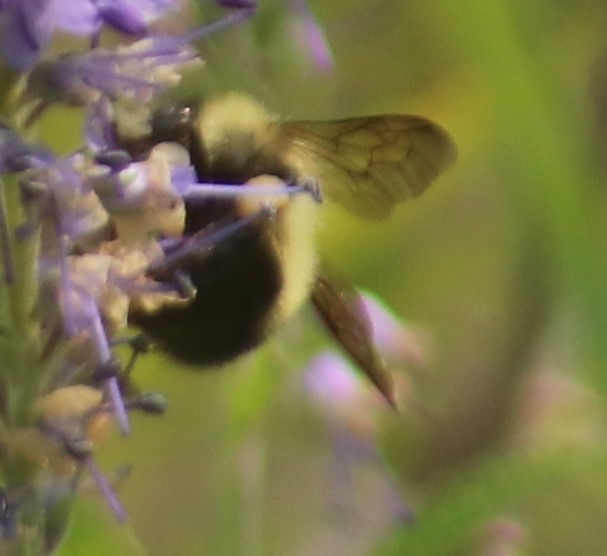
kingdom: Animalia
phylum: Arthropoda
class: Insecta
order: Hymenoptera
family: Apidae
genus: Pyrobombus
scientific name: Pyrobombus
